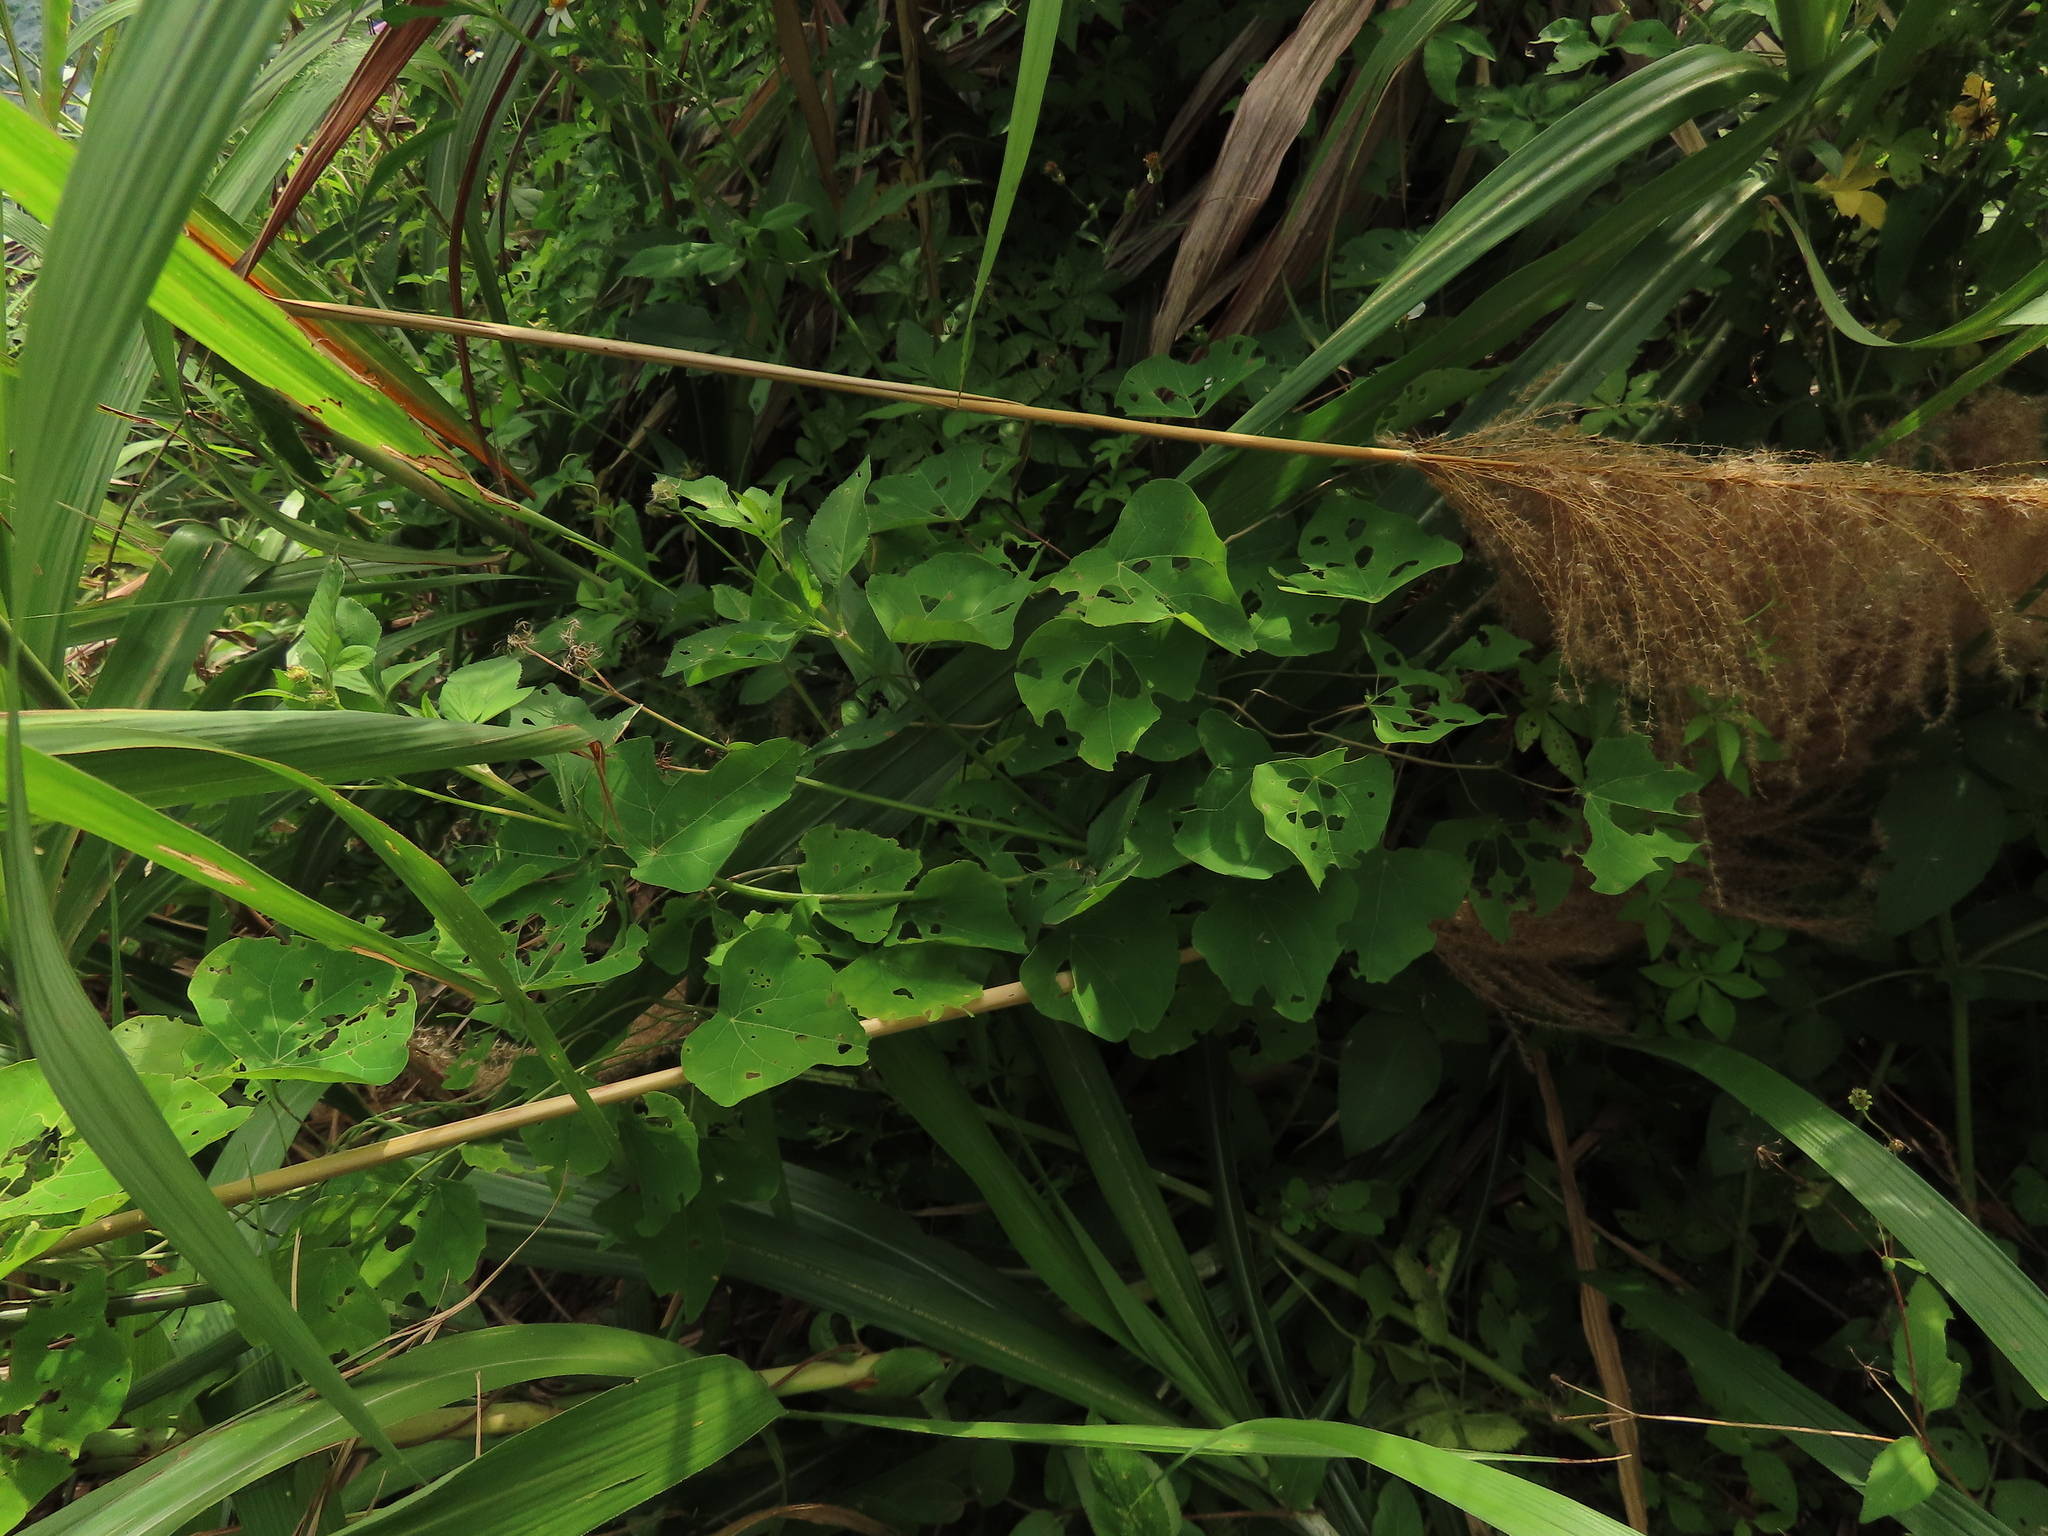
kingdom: Plantae
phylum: Tracheophyta
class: Magnoliopsida
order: Ranunculales
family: Menispermaceae
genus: Stephania
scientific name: Stephania tetrandra
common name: Stephania-root
